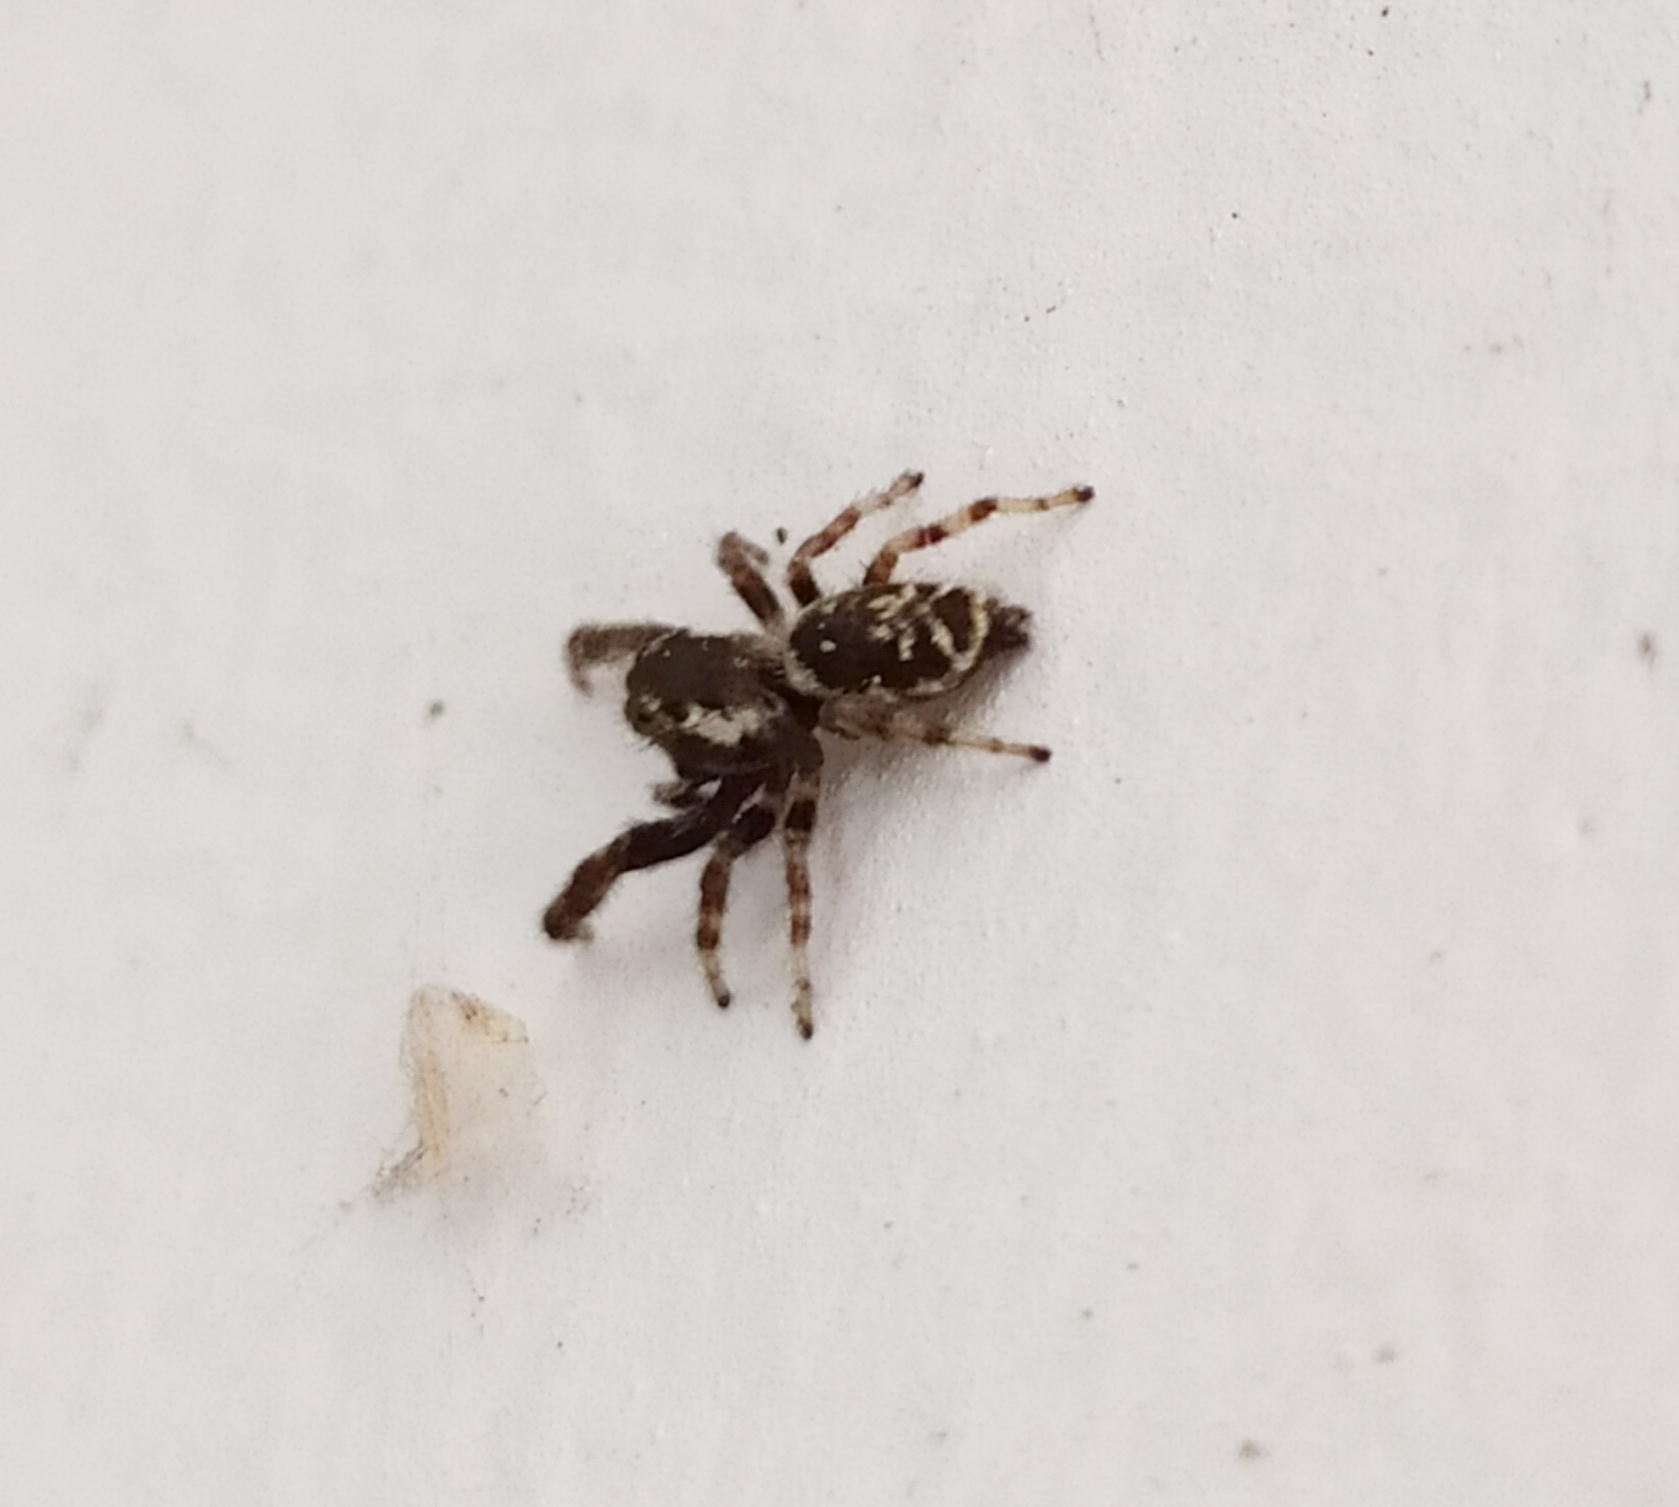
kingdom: Animalia
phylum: Arthropoda
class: Arachnida
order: Araneae
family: Salticidae
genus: Macaroeris
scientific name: Macaroeris nidicolens
